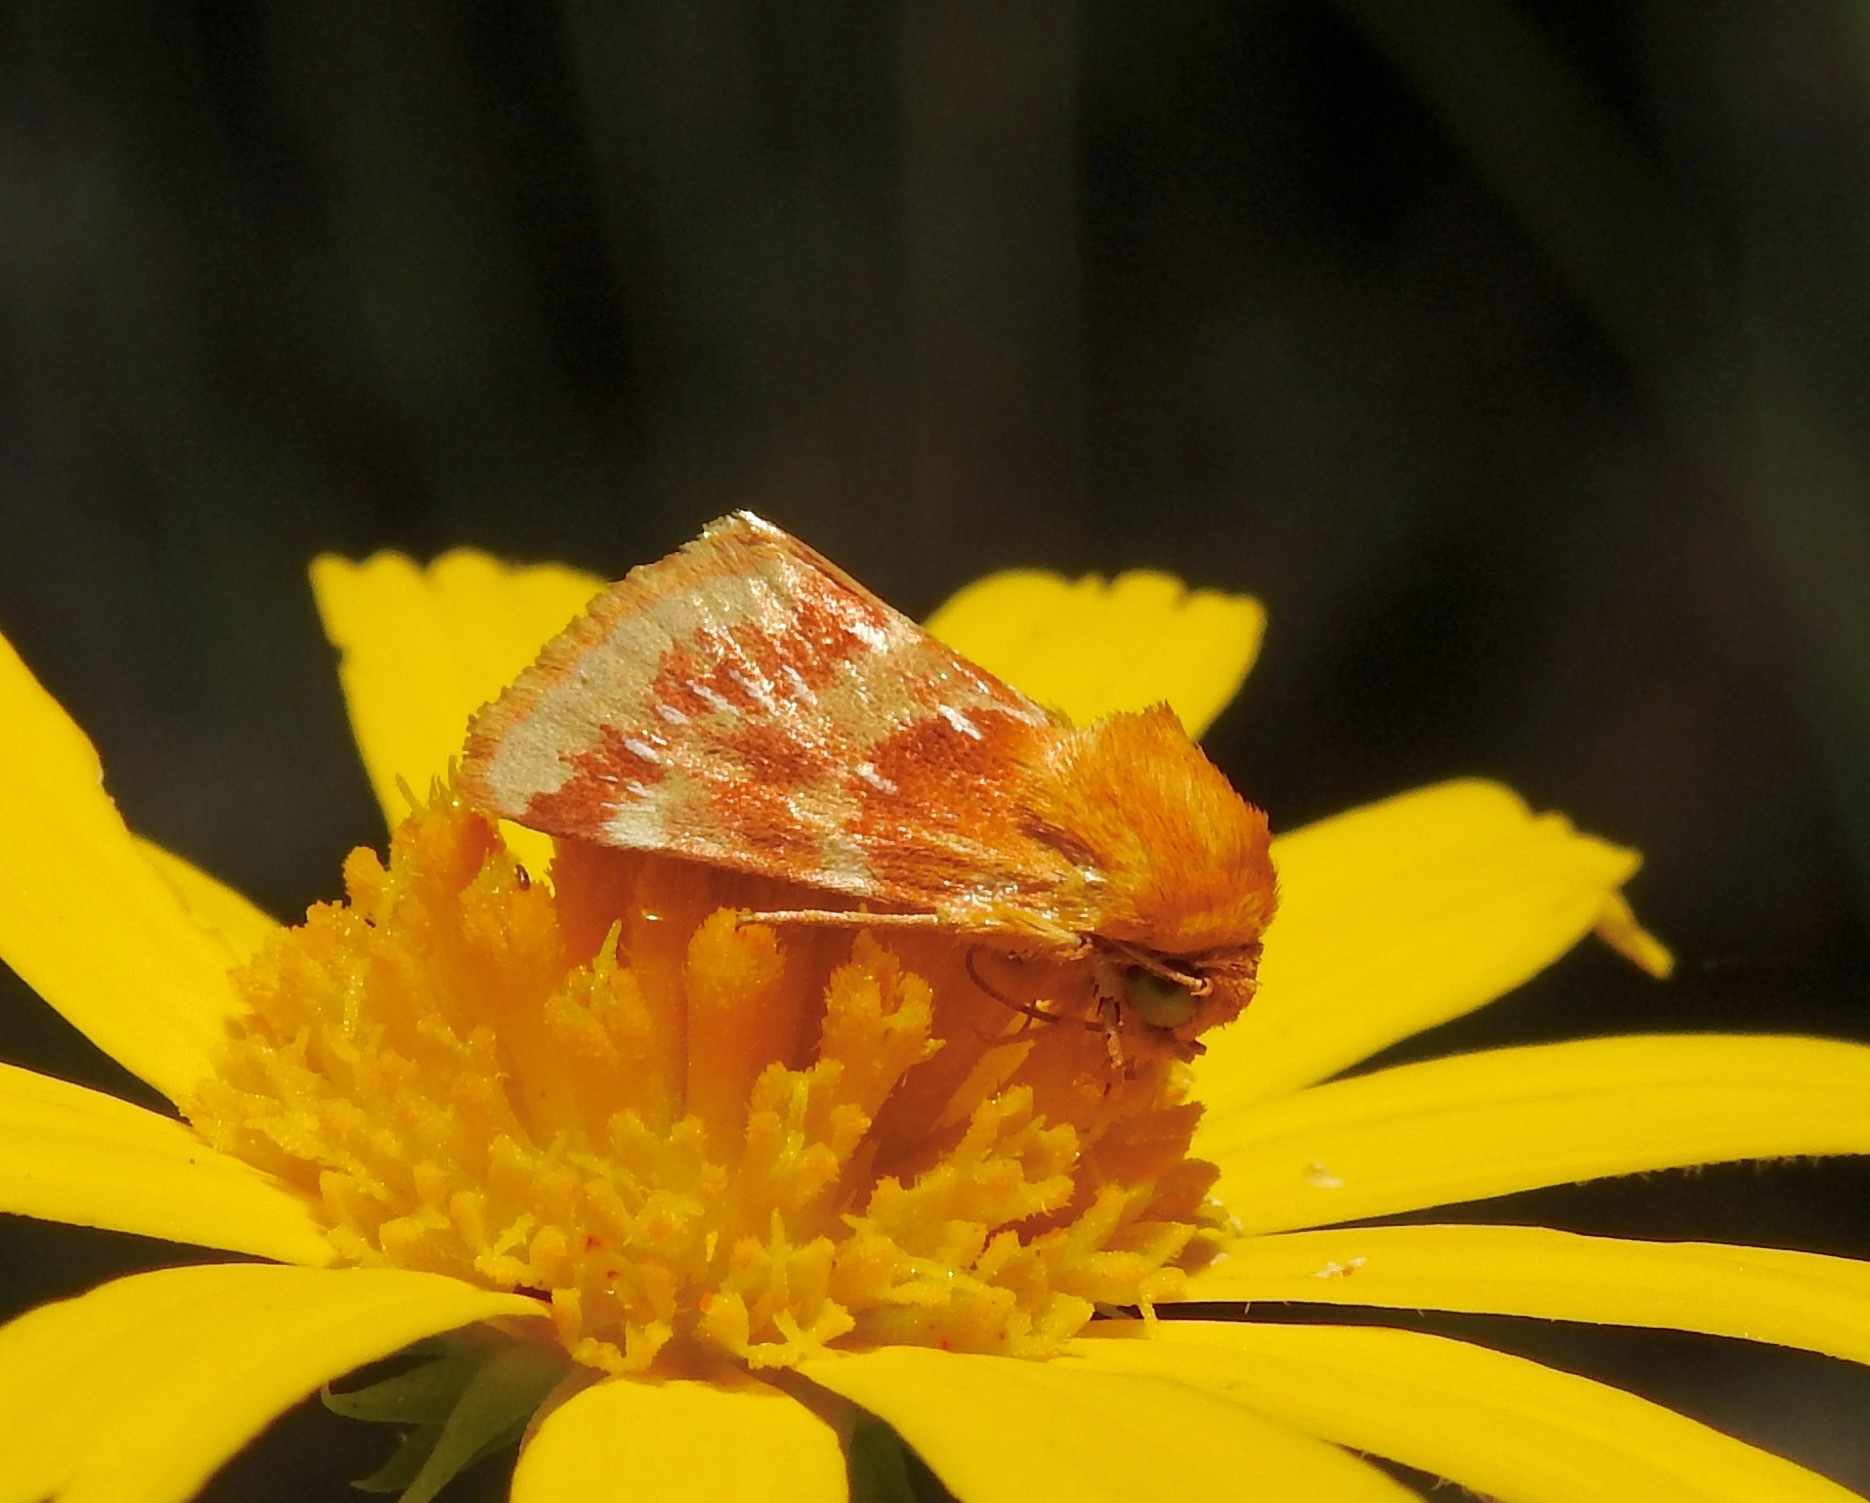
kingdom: Animalia
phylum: Arthropoda
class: Insecta
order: Lepidoptera
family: Noctuidae
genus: Schinia
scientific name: Schinia fulleri
